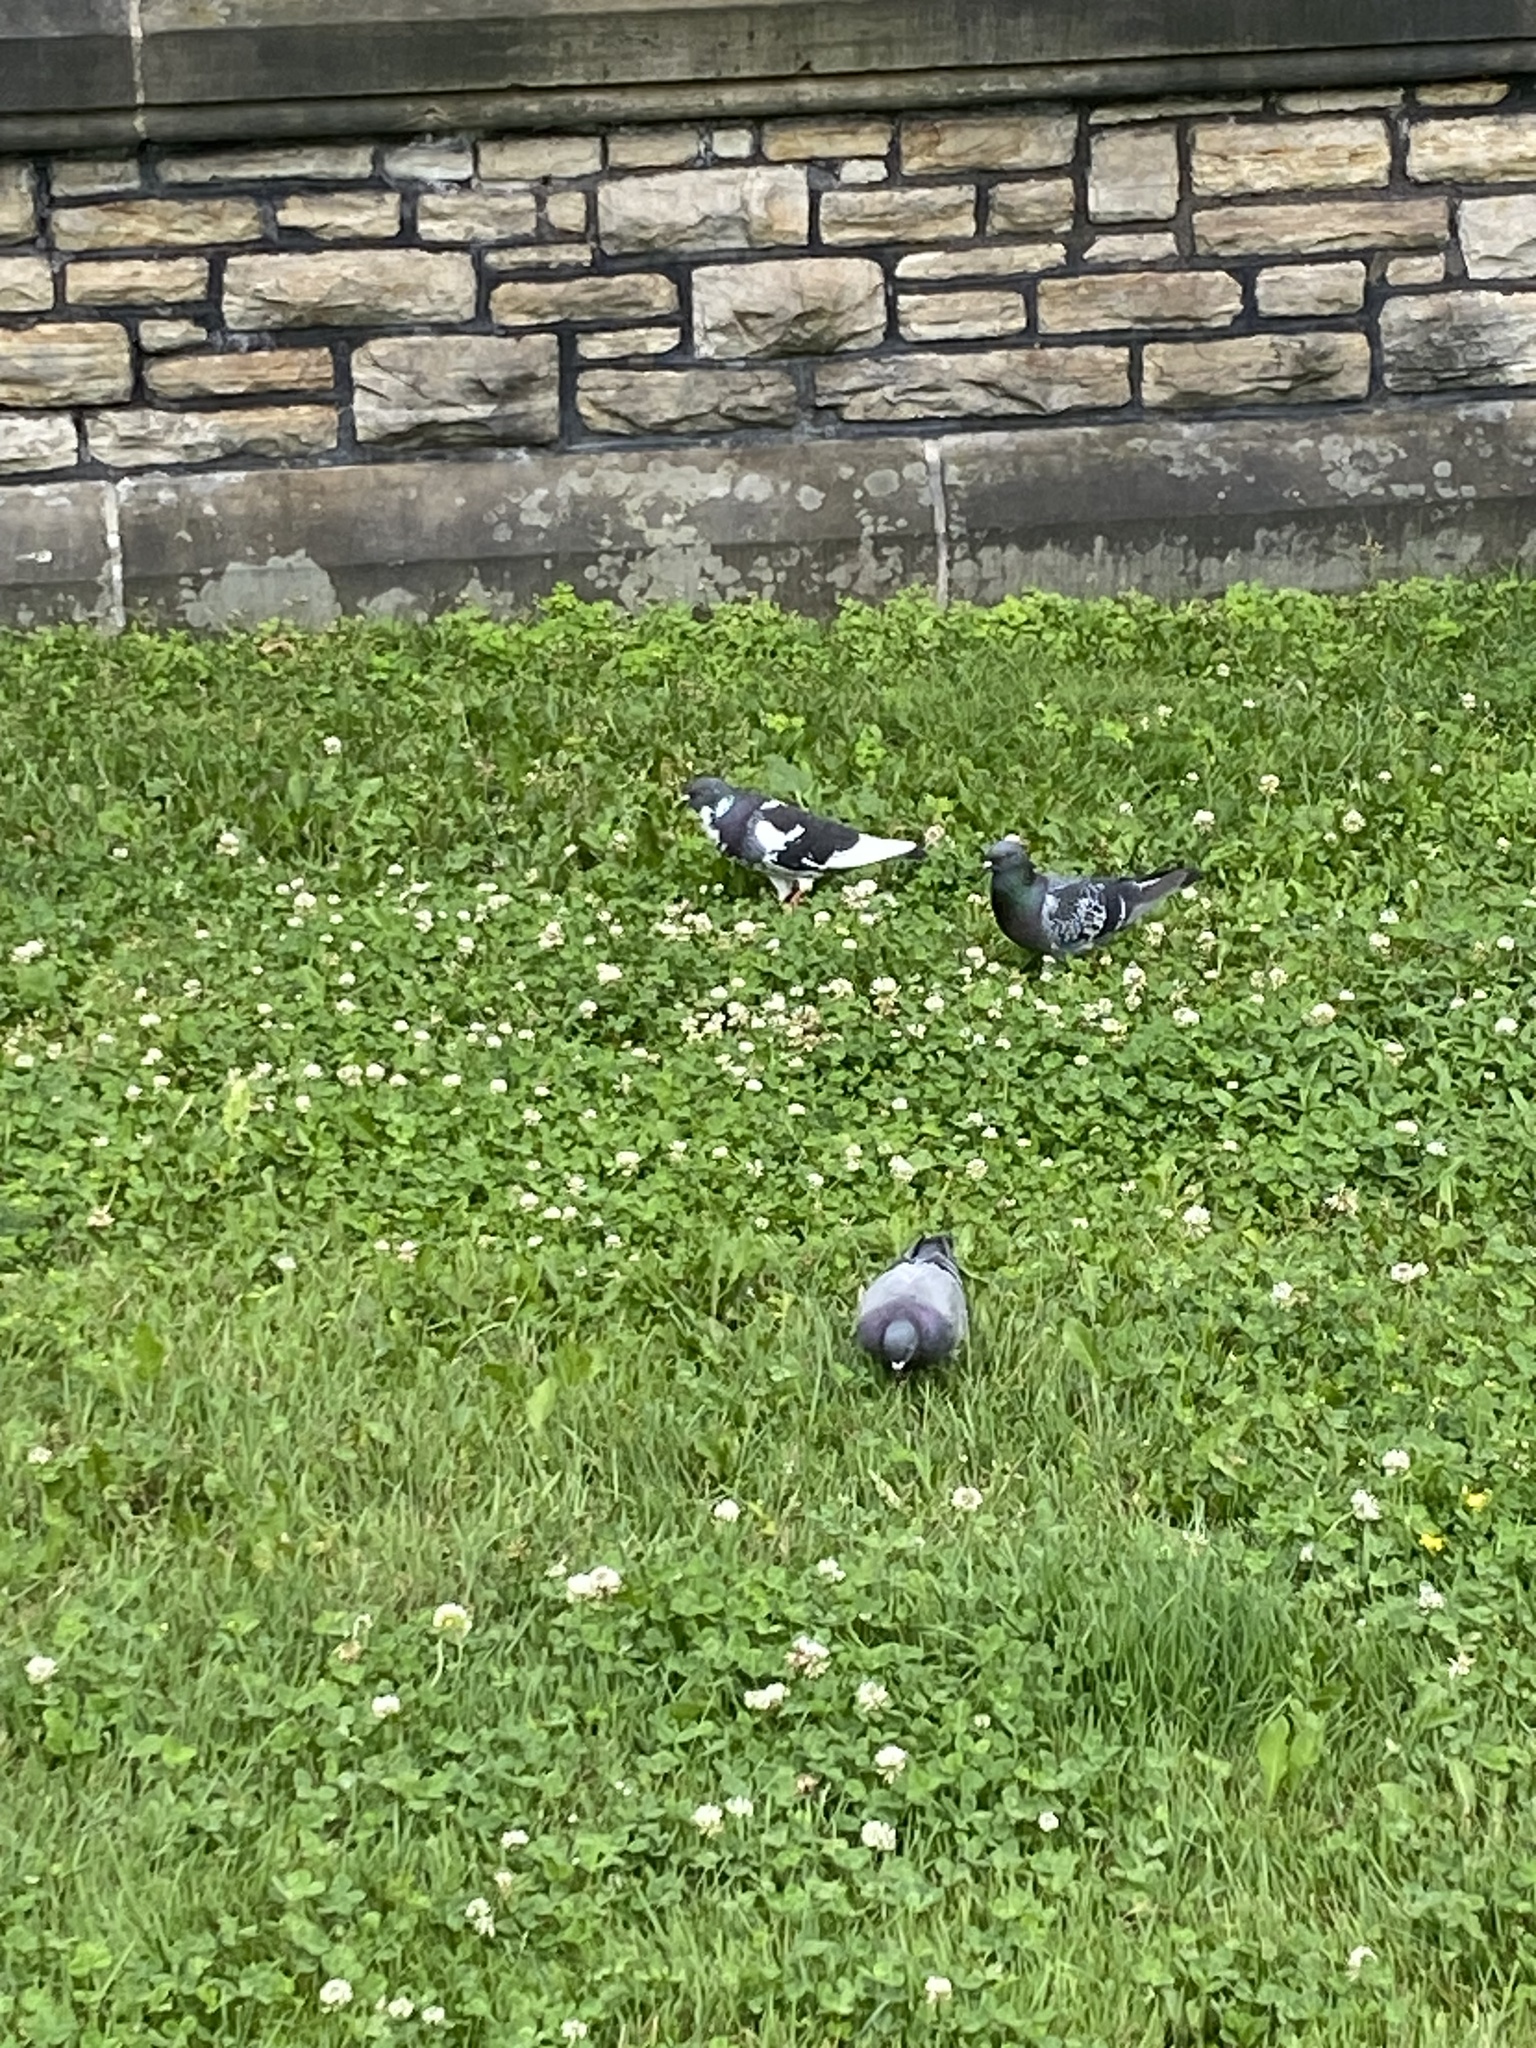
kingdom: Animalia
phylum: Chordata
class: Aves
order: Columbiformes
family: Columbidae
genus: Columba
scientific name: Columba livia
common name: Rock pigeon
